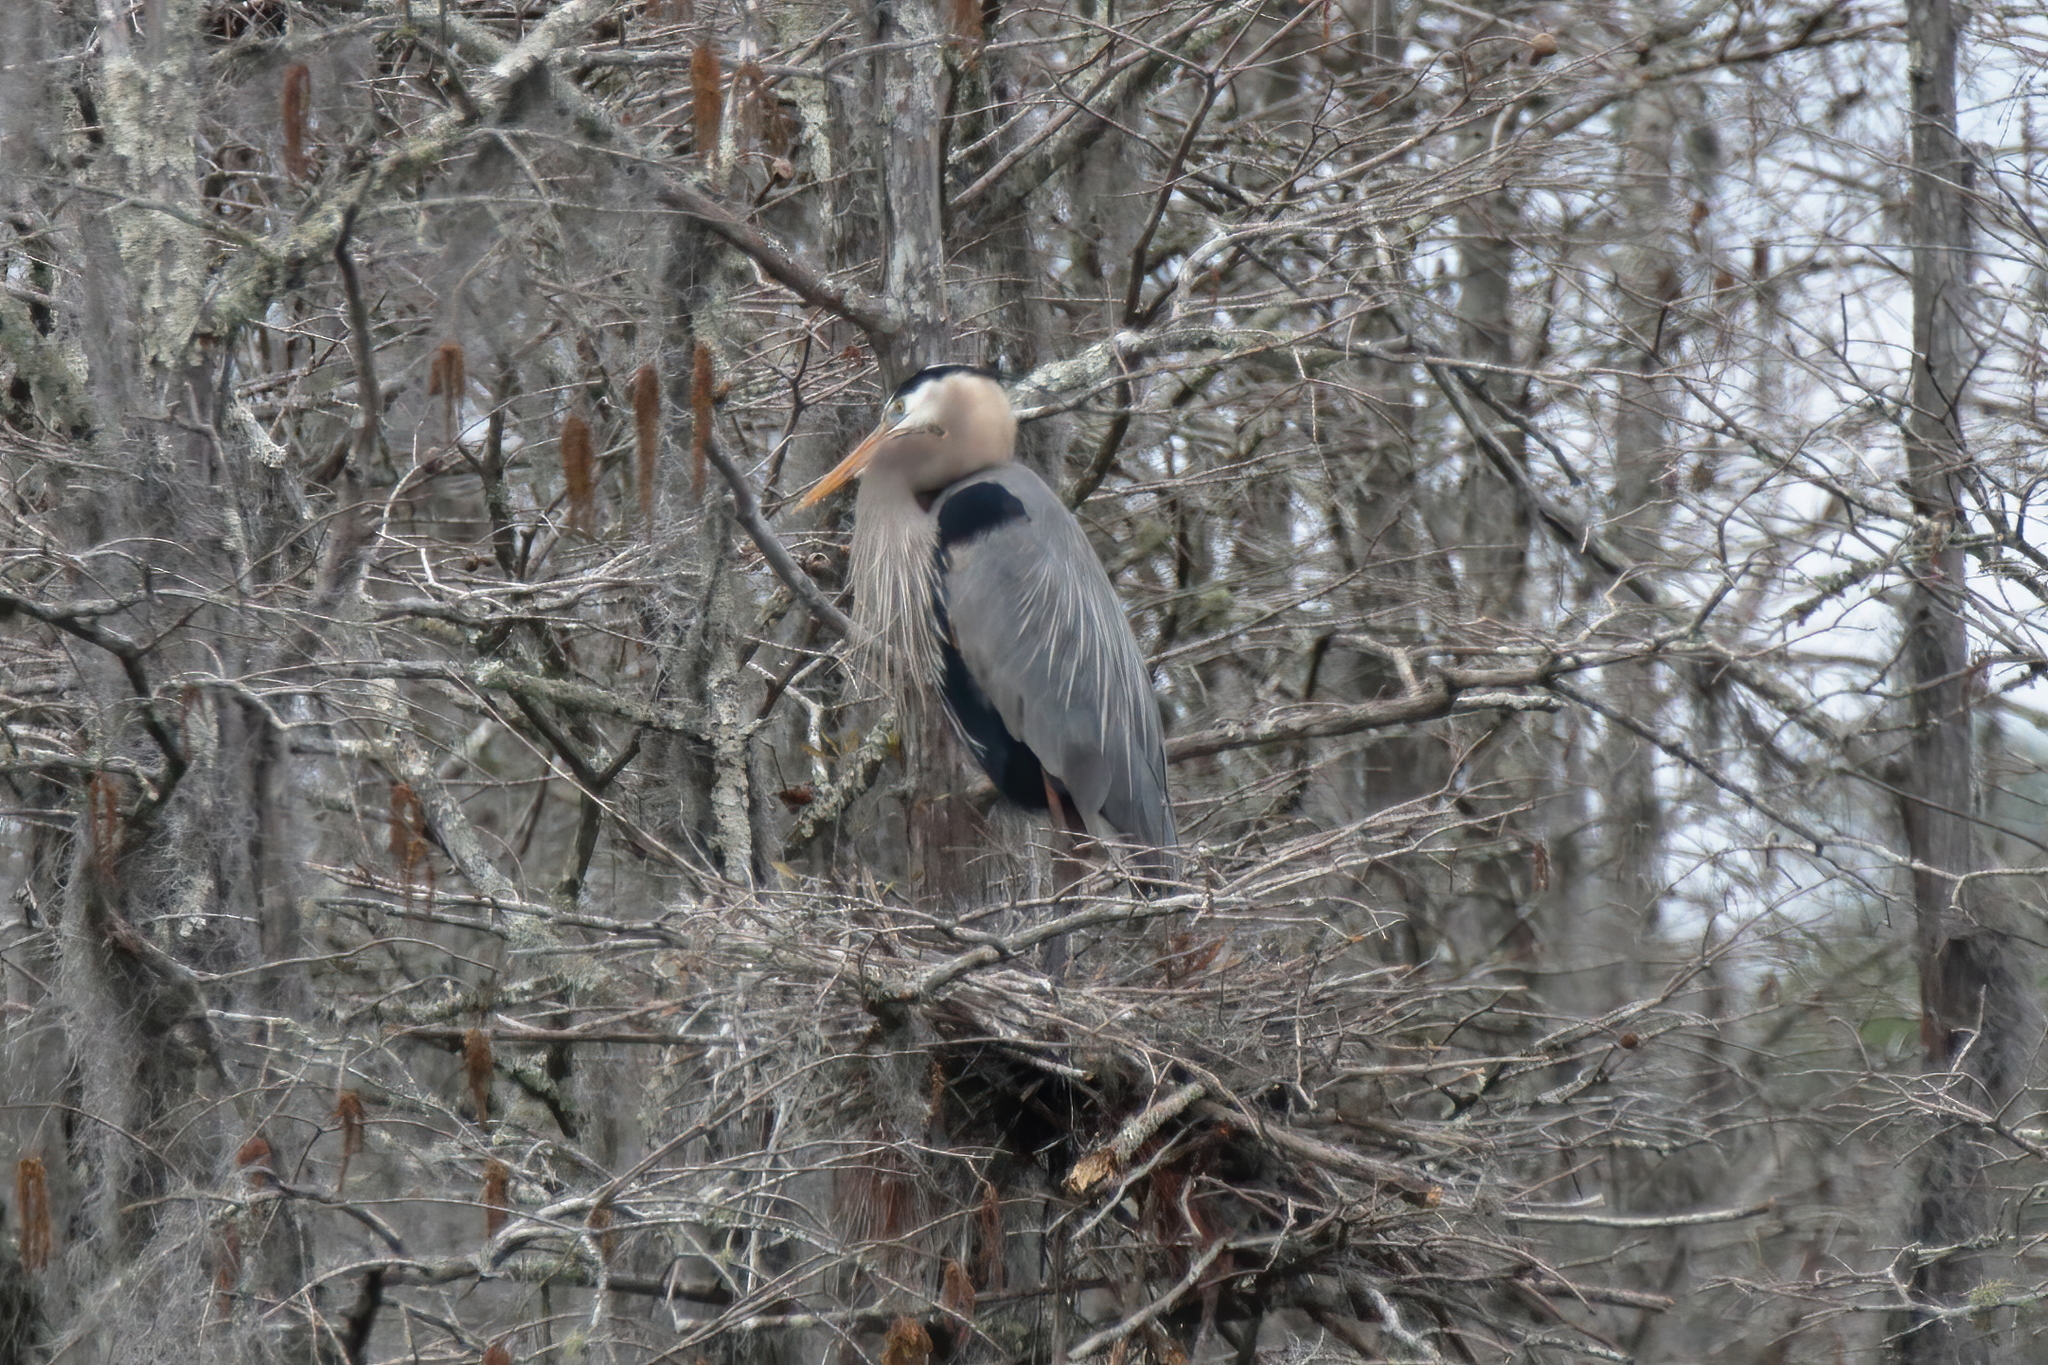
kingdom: Animalia
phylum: Chordata
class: Aves
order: Pelecaniformes
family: Ardeidae
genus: Ardea
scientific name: Ardea herodias
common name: Great blue heron
